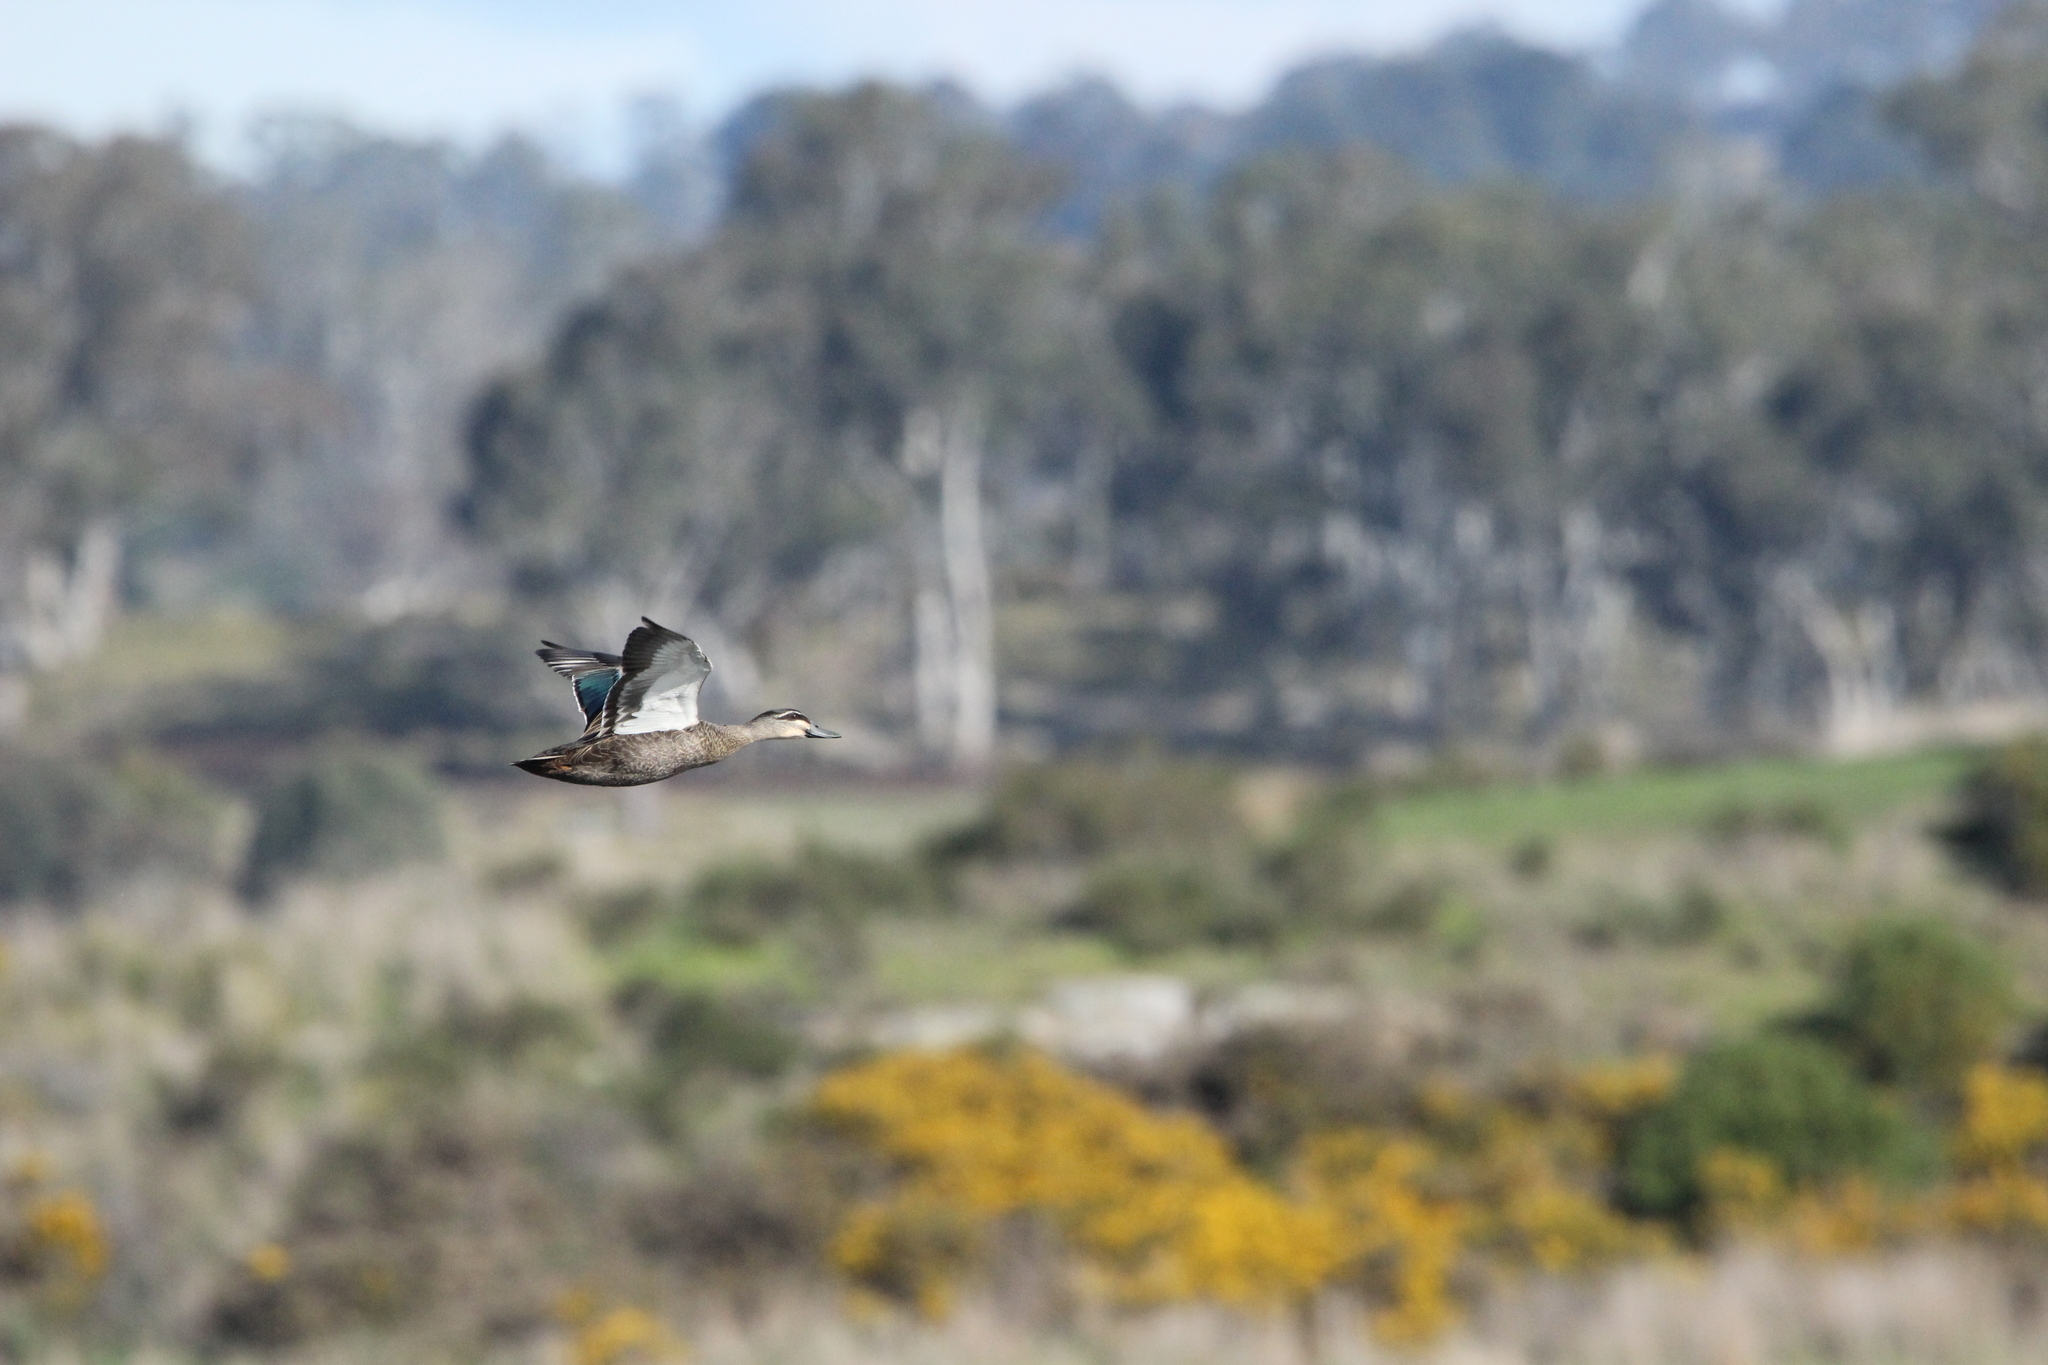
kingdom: Animalia
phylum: Chordata
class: Aves
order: Anseriformes
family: Anatidae
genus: Anas
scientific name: Anas
